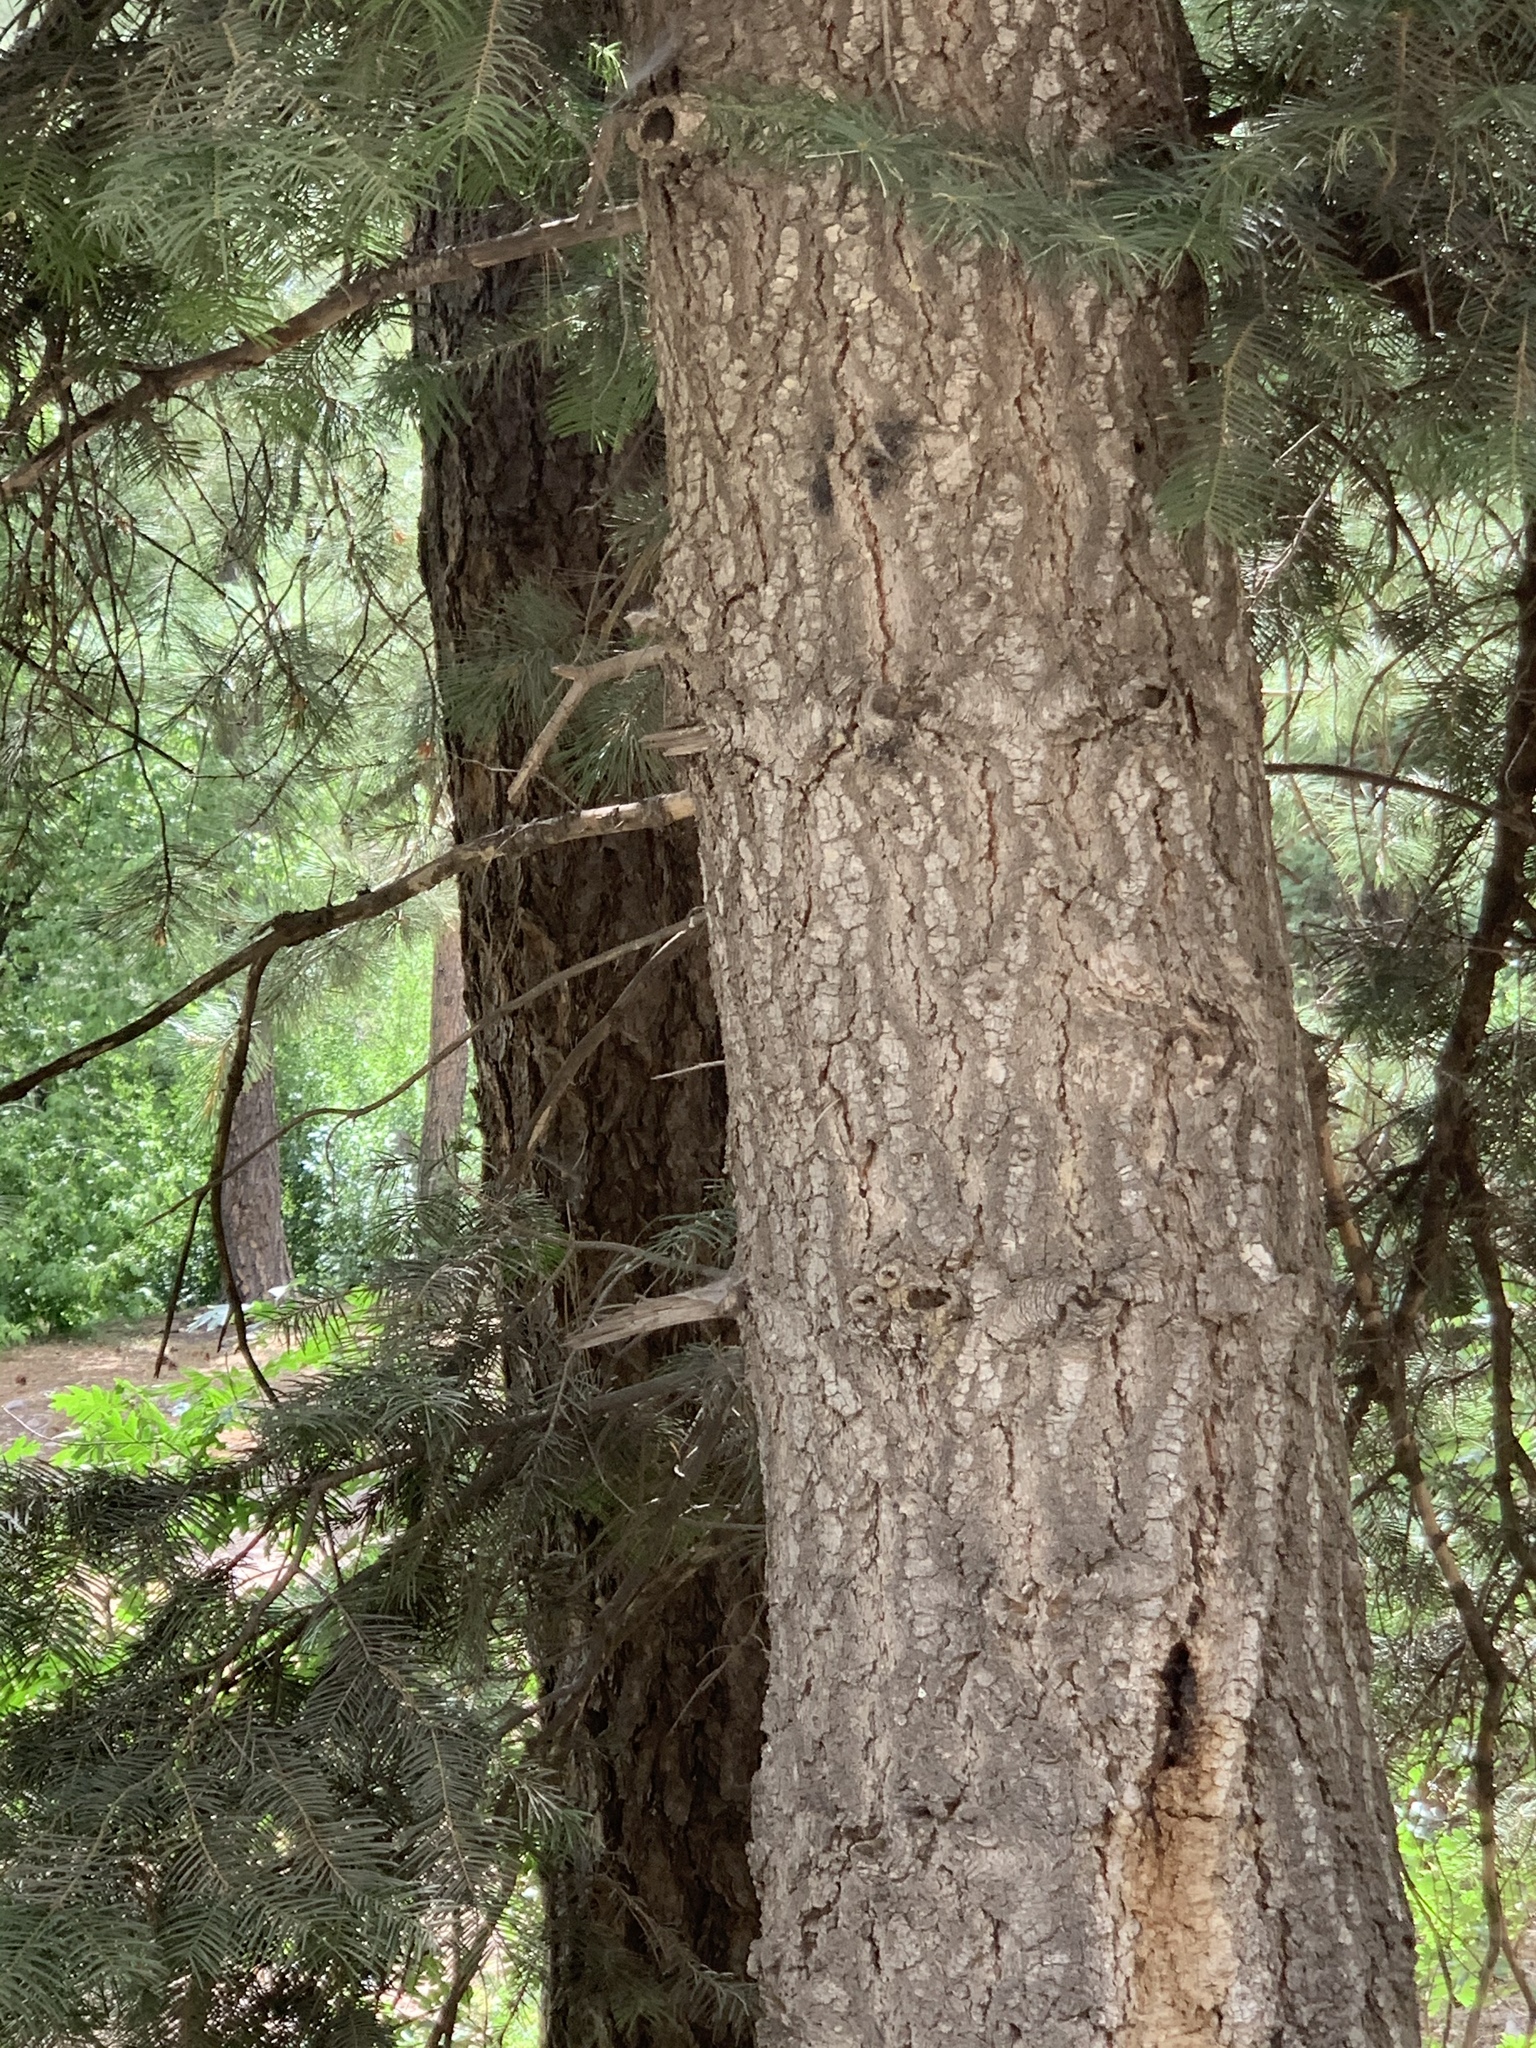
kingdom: Plantae
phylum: Tracheophyta
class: Pinopsida
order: Pinales
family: Pinaceae
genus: Abies
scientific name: Abies concolor
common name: Colorado fir
